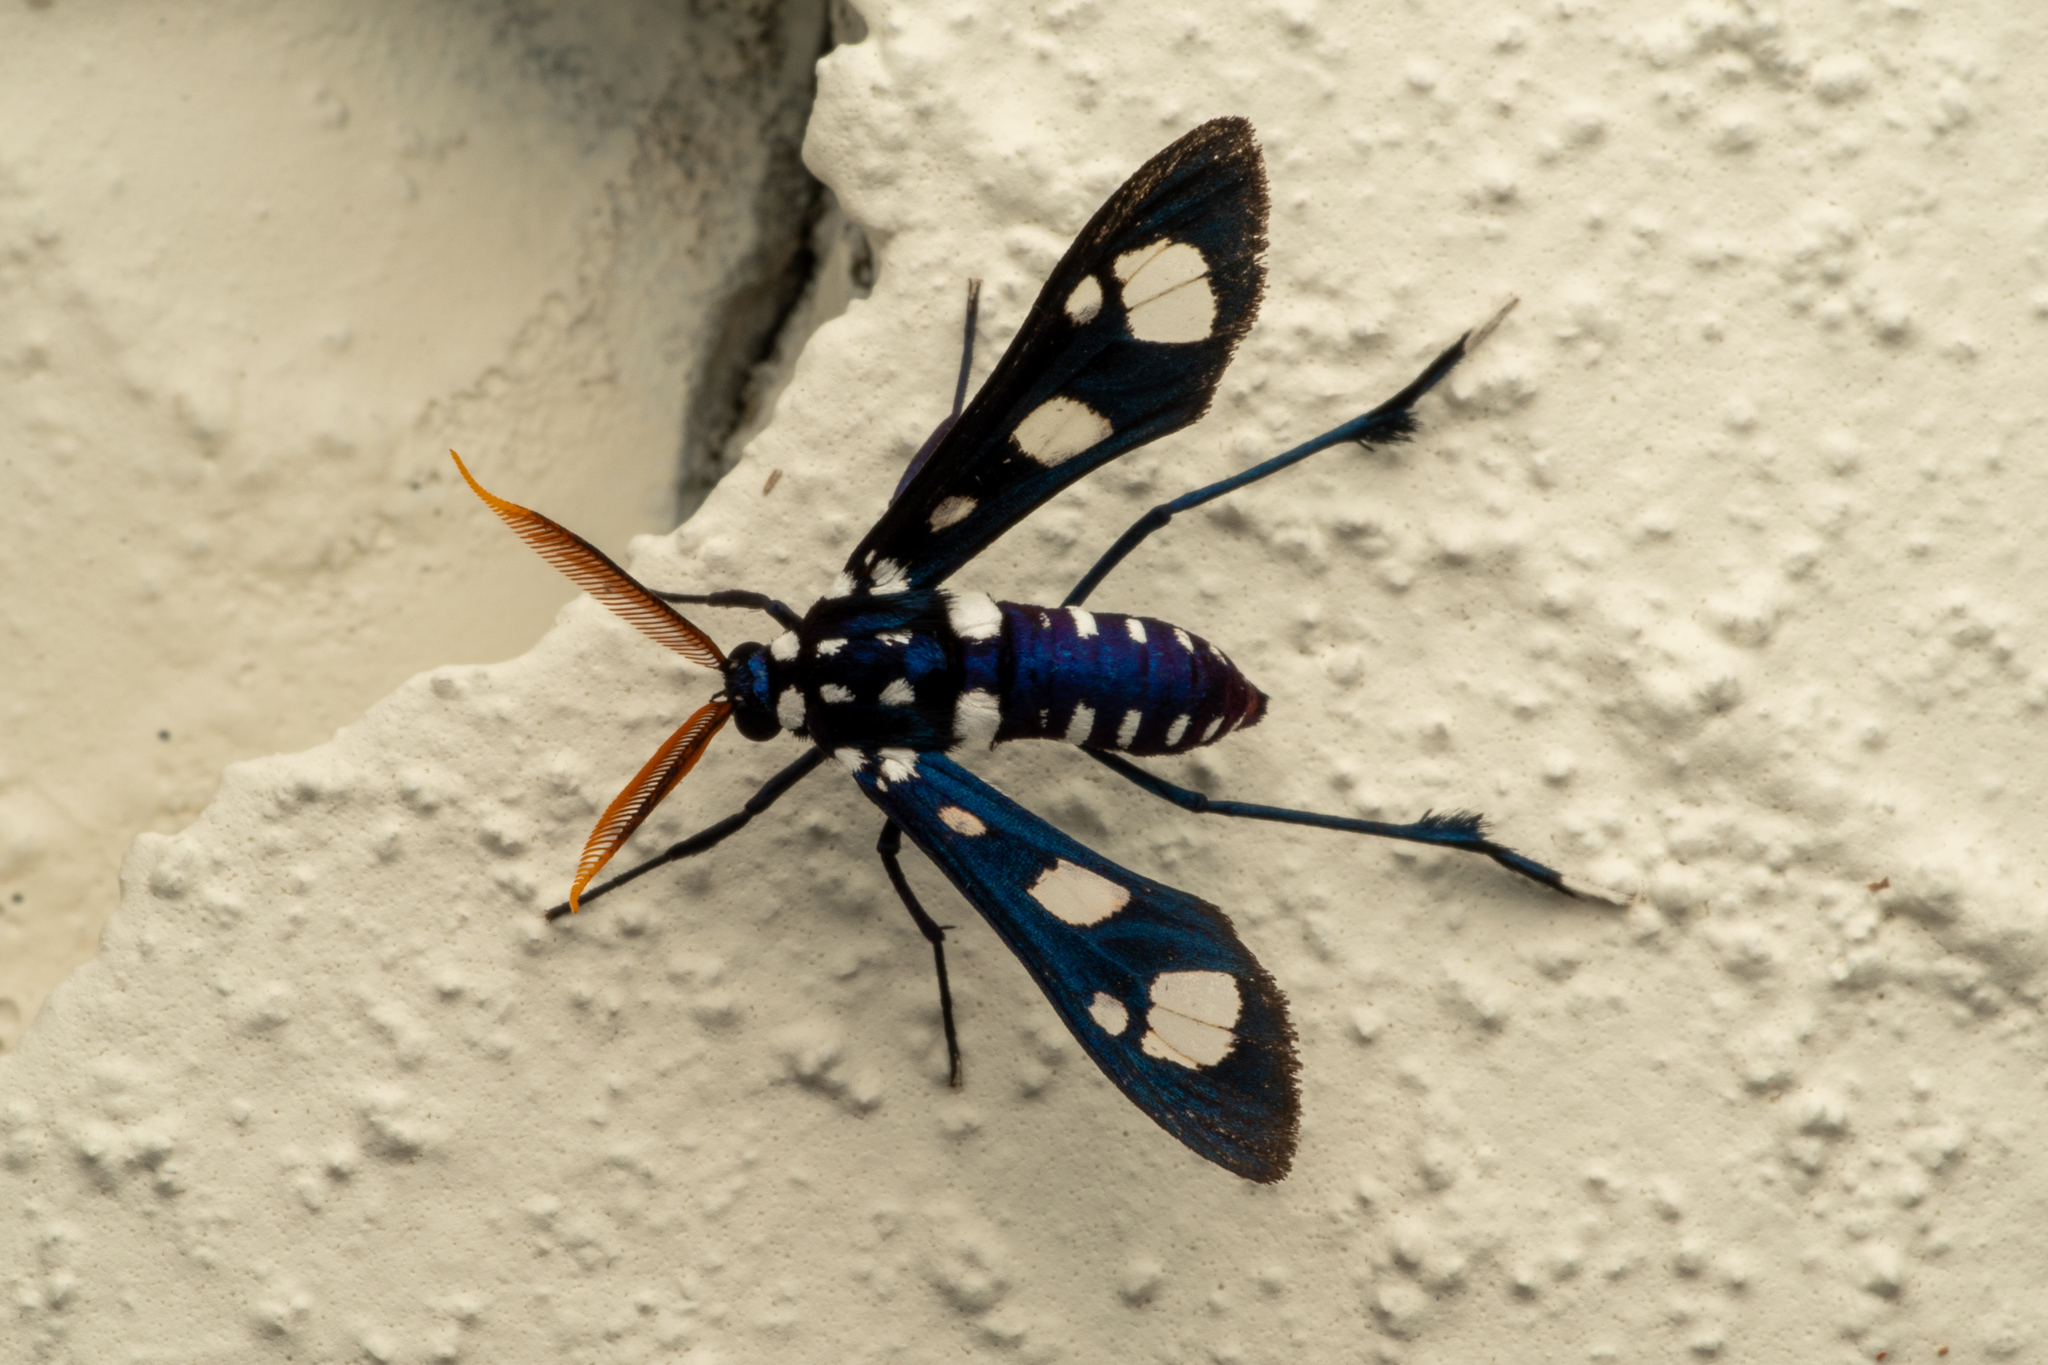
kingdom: Animalia
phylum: Arthropoda
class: Insecta
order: Lepidoptera
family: Erebidae
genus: Pseudohyaleucerea
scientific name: Pseudohyaleucerea minima
